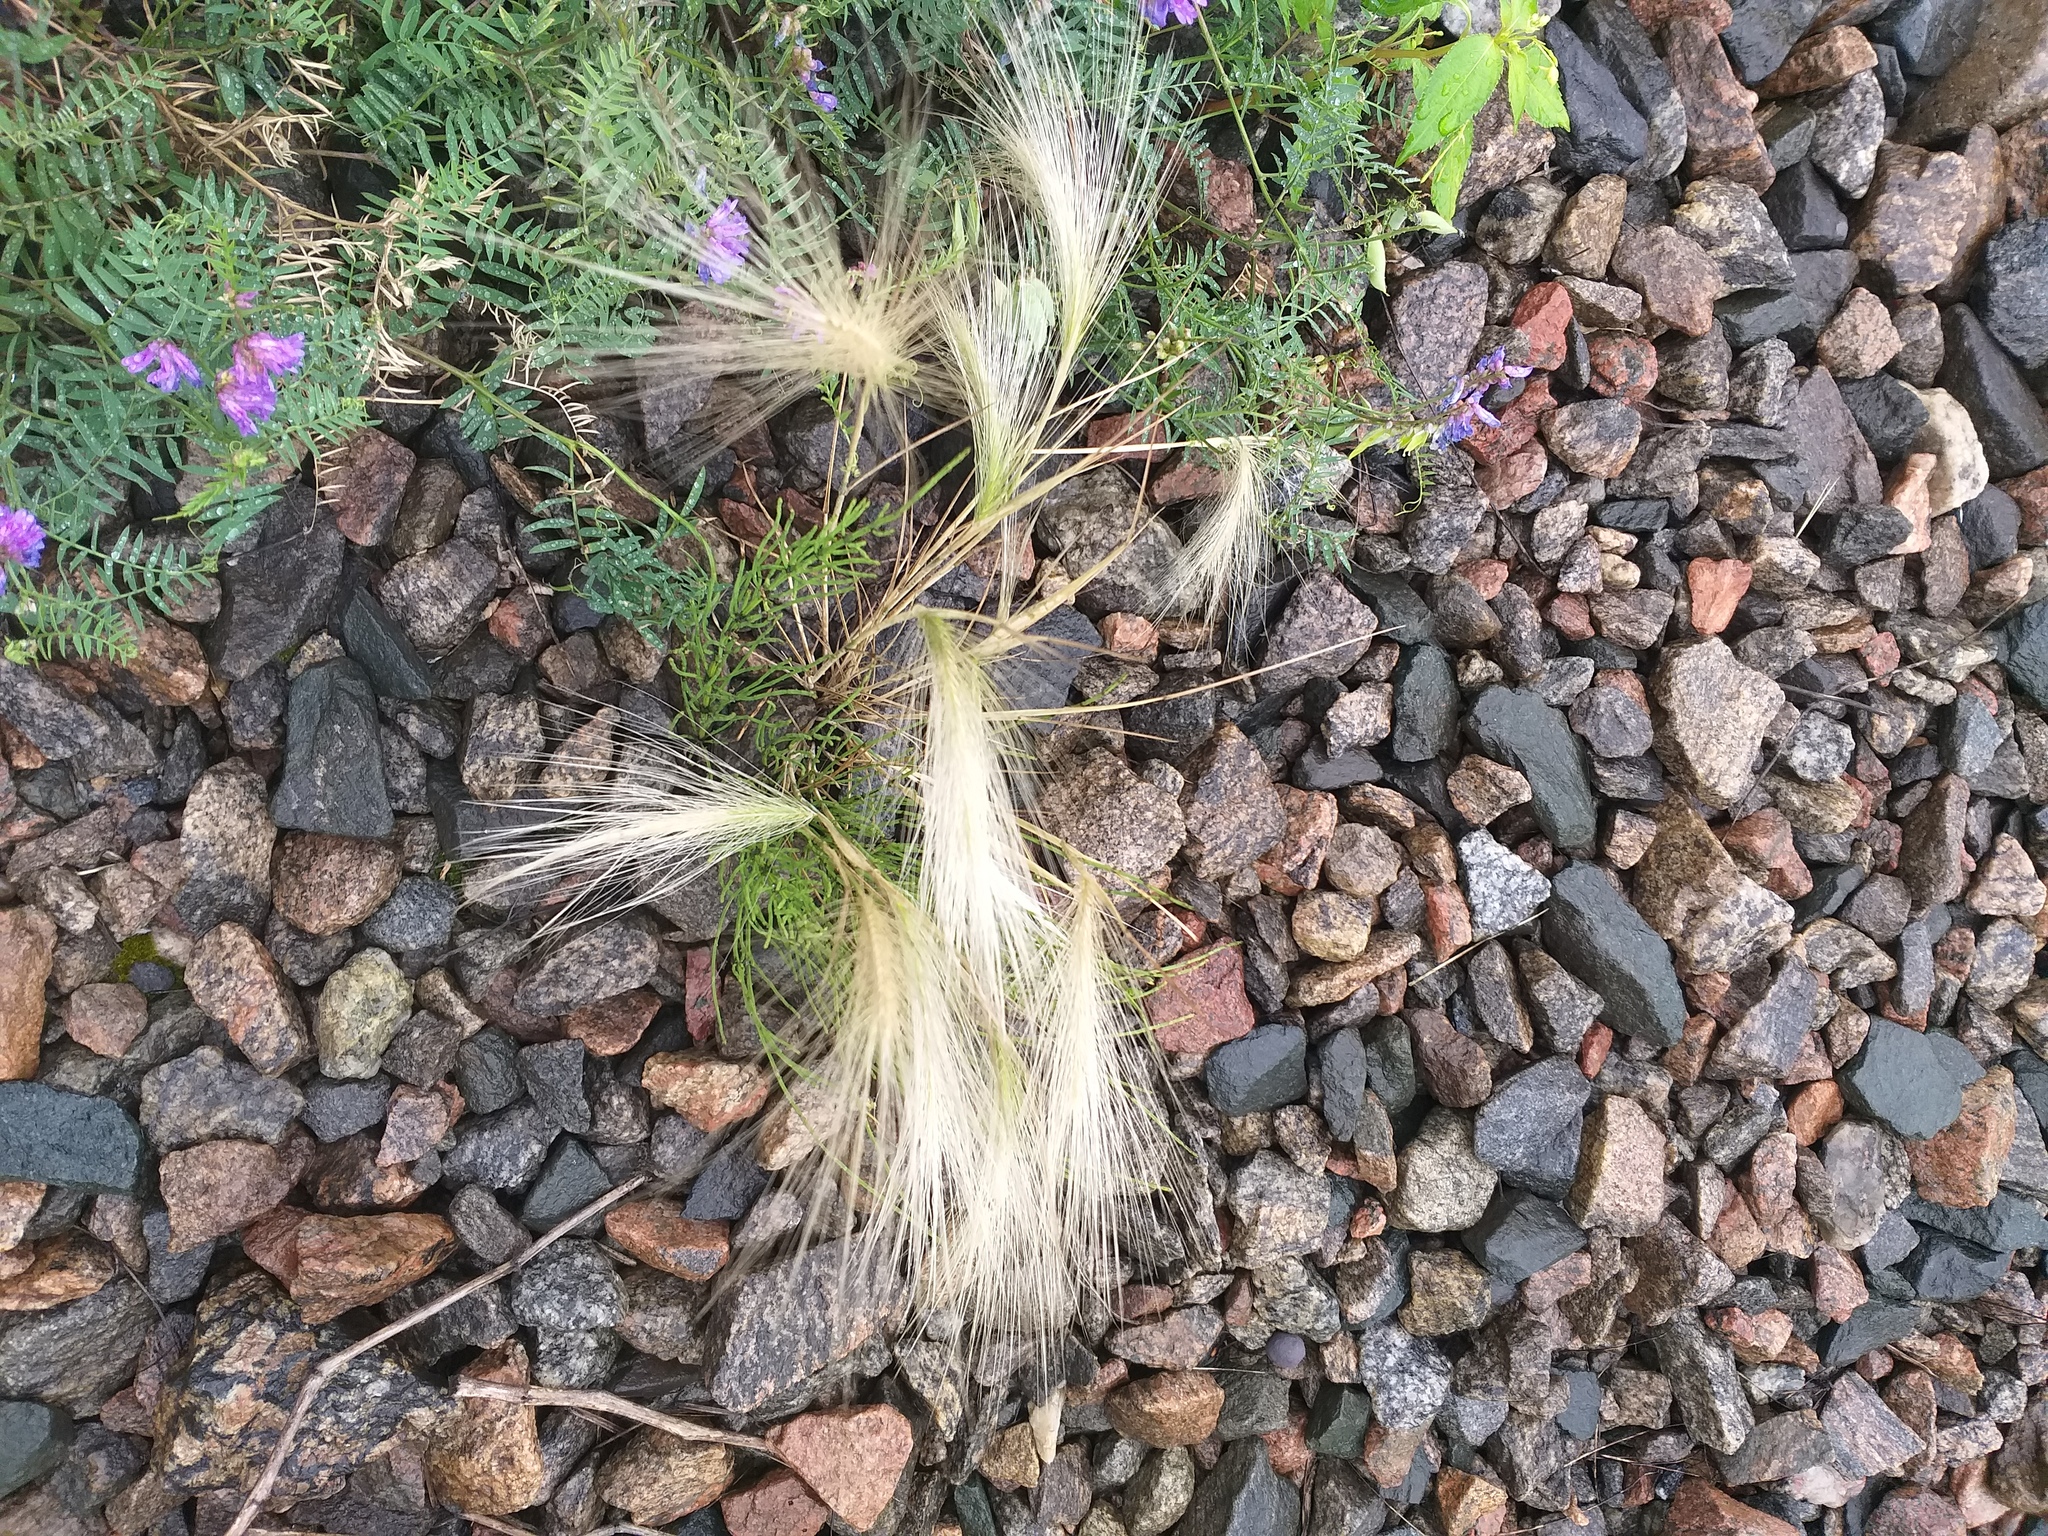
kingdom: Plantae
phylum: Tracheophyta
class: Liliopsida
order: Poales
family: Poaceae
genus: Hordeum
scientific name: Hordeum jubatum
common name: Foxtail barley
